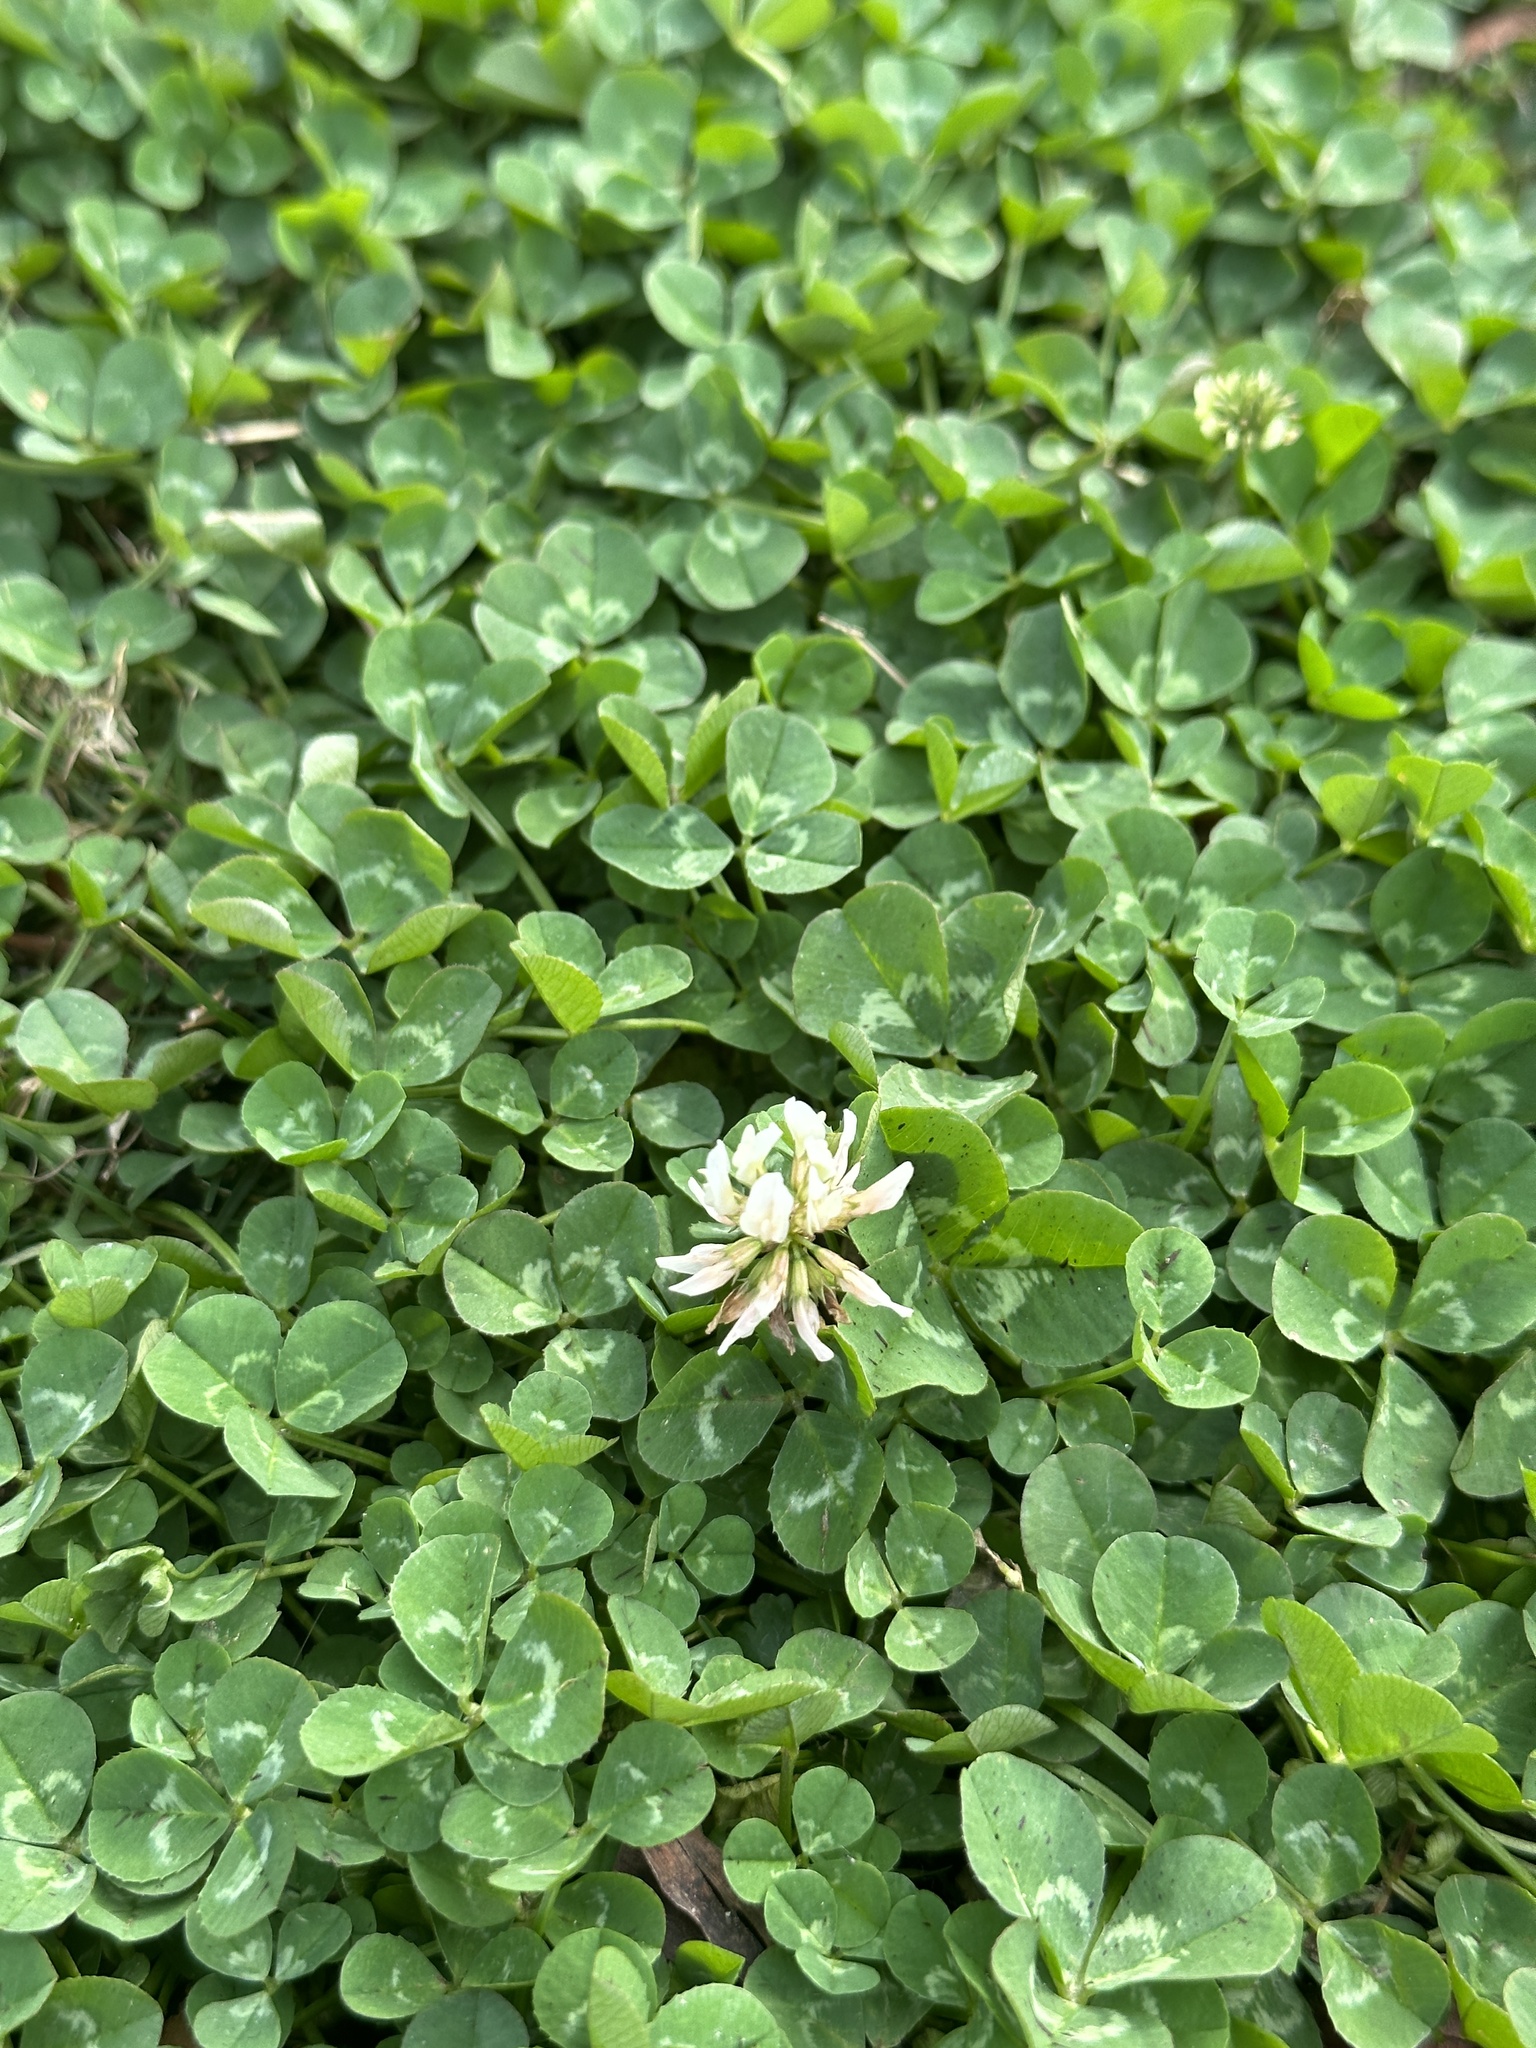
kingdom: Plantae
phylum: Tracheophyta
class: Magnoliopsida
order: Fabales
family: Fabaceae
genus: Trifolium
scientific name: Trifolium repens
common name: White clover
